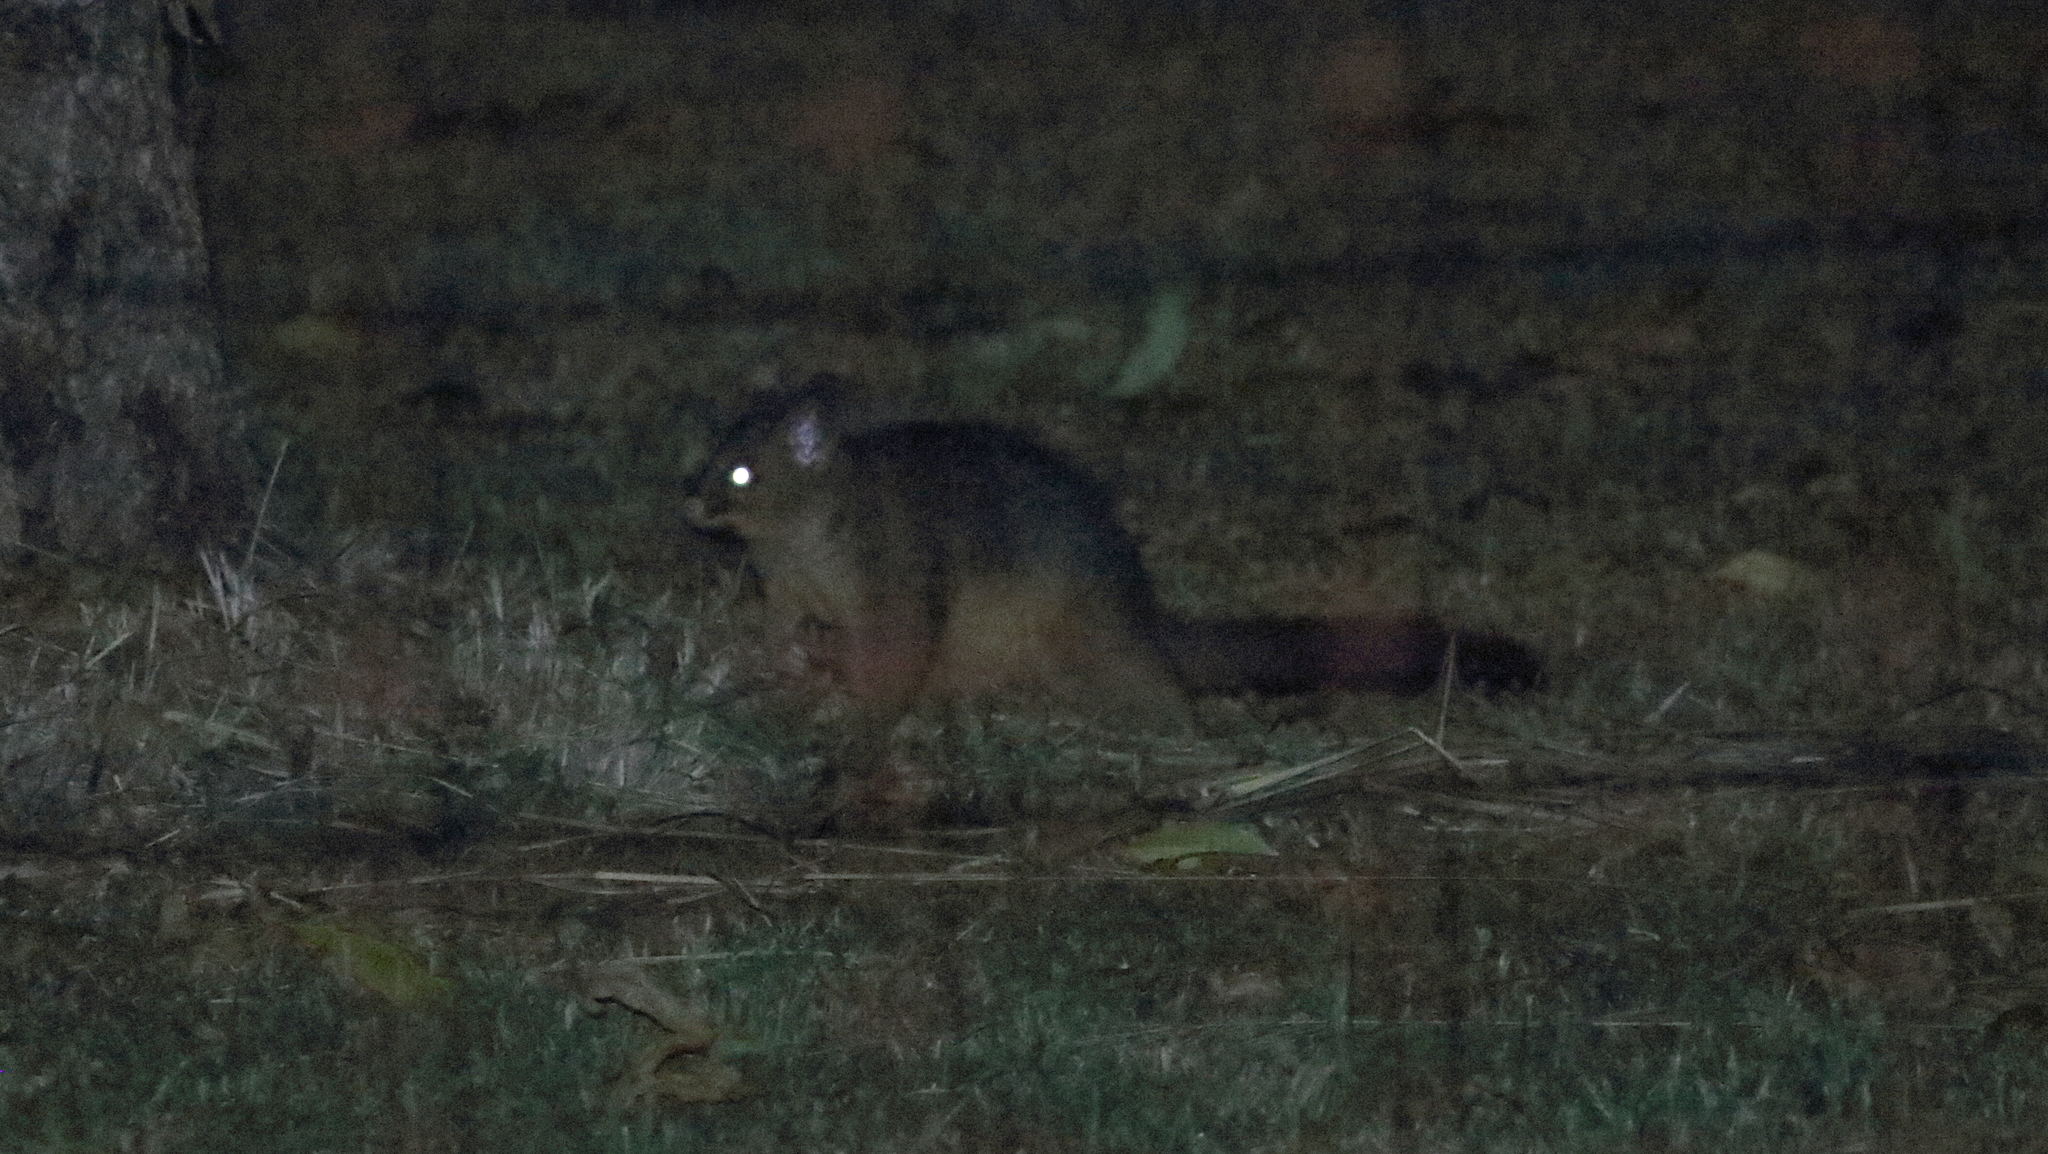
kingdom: Animalia
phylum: Chordata
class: Mammalia
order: Diprotodontia
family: Phalangeridae
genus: Trichosurus
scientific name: Trichosurus vulpecula
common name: Common brushtail
